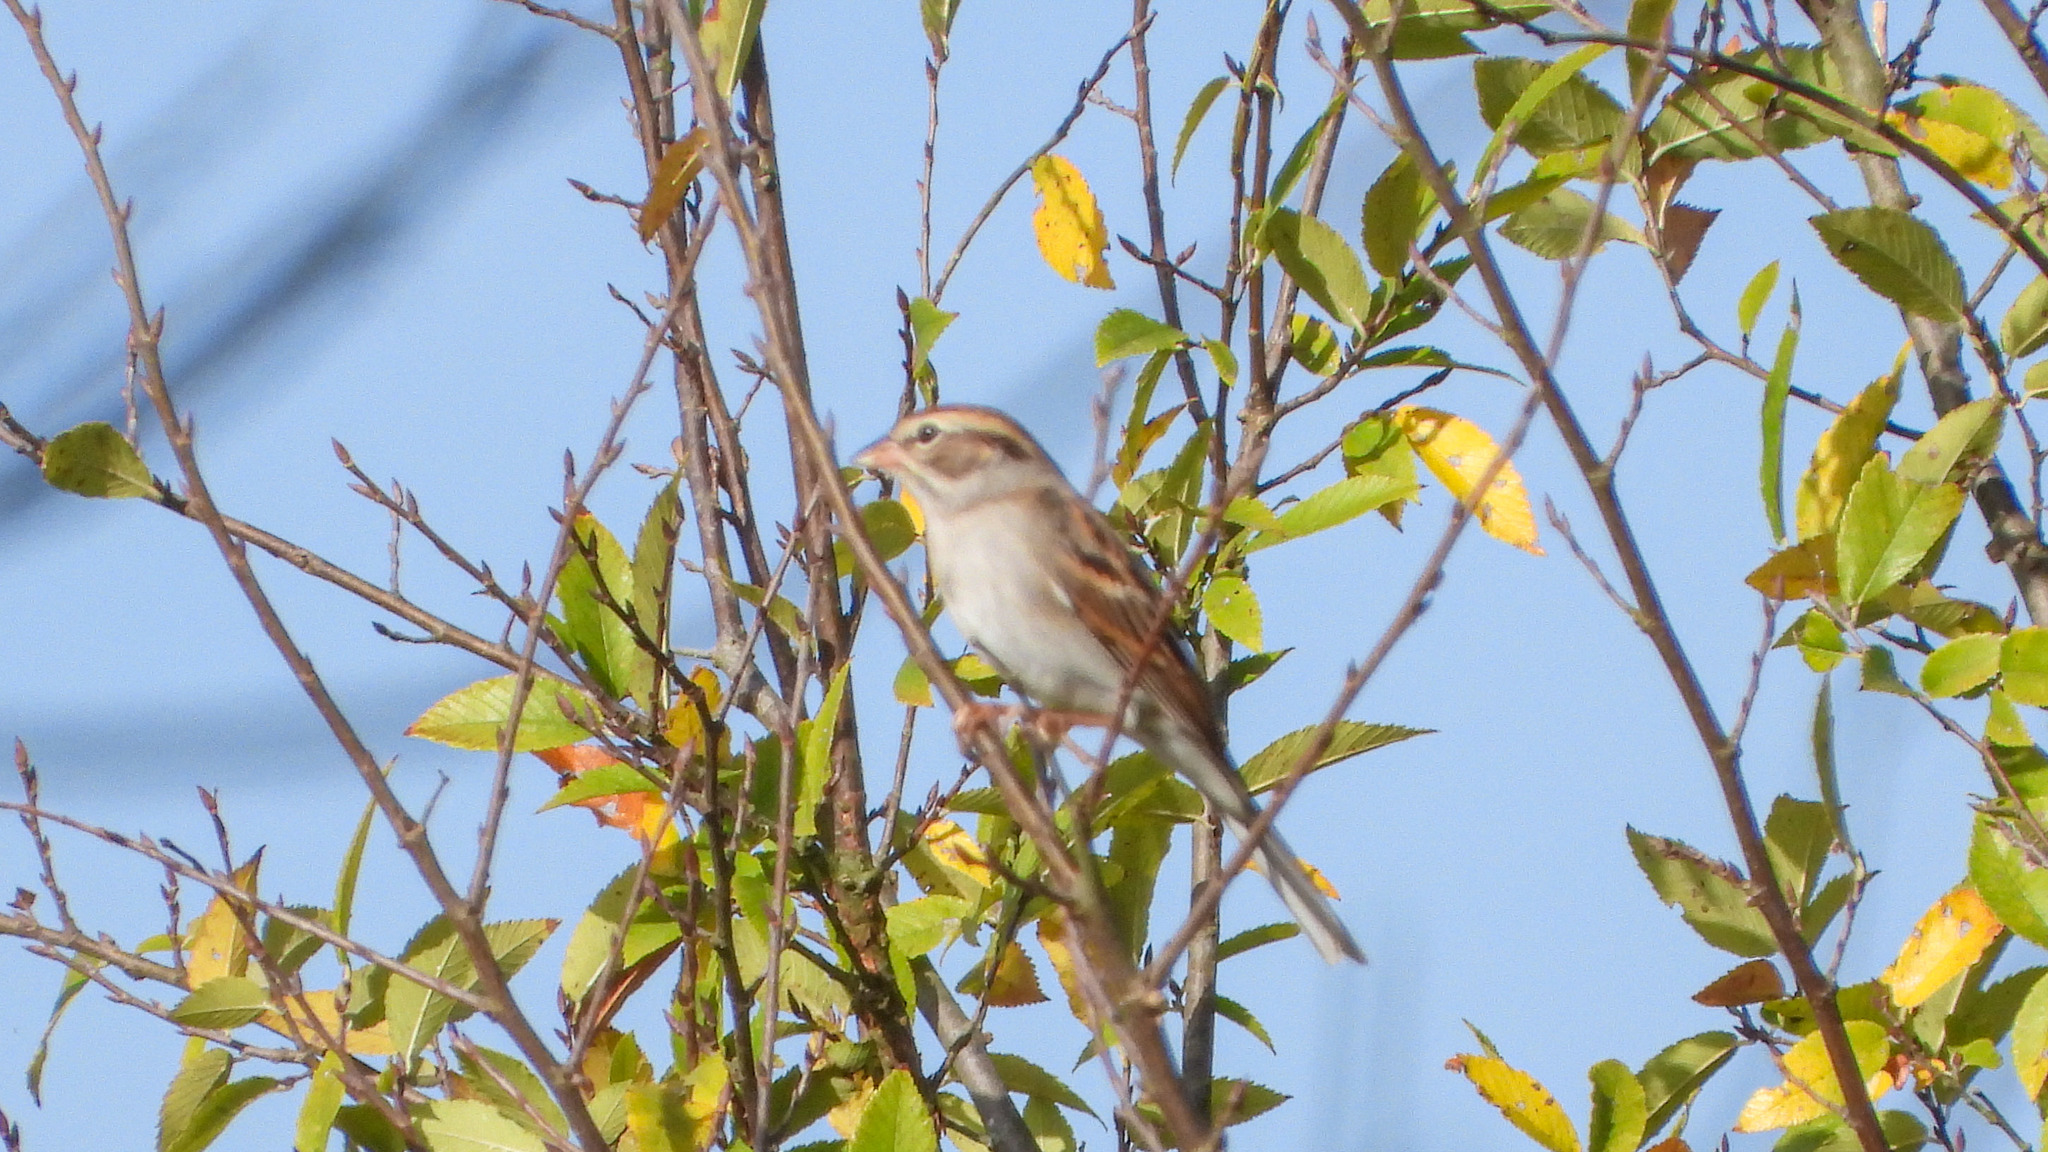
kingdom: Animalia
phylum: Chordata
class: Aves
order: Passeriformes
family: Passerellidae
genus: Spizella
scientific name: Spizella pallida
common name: Clay-colored sparrow
